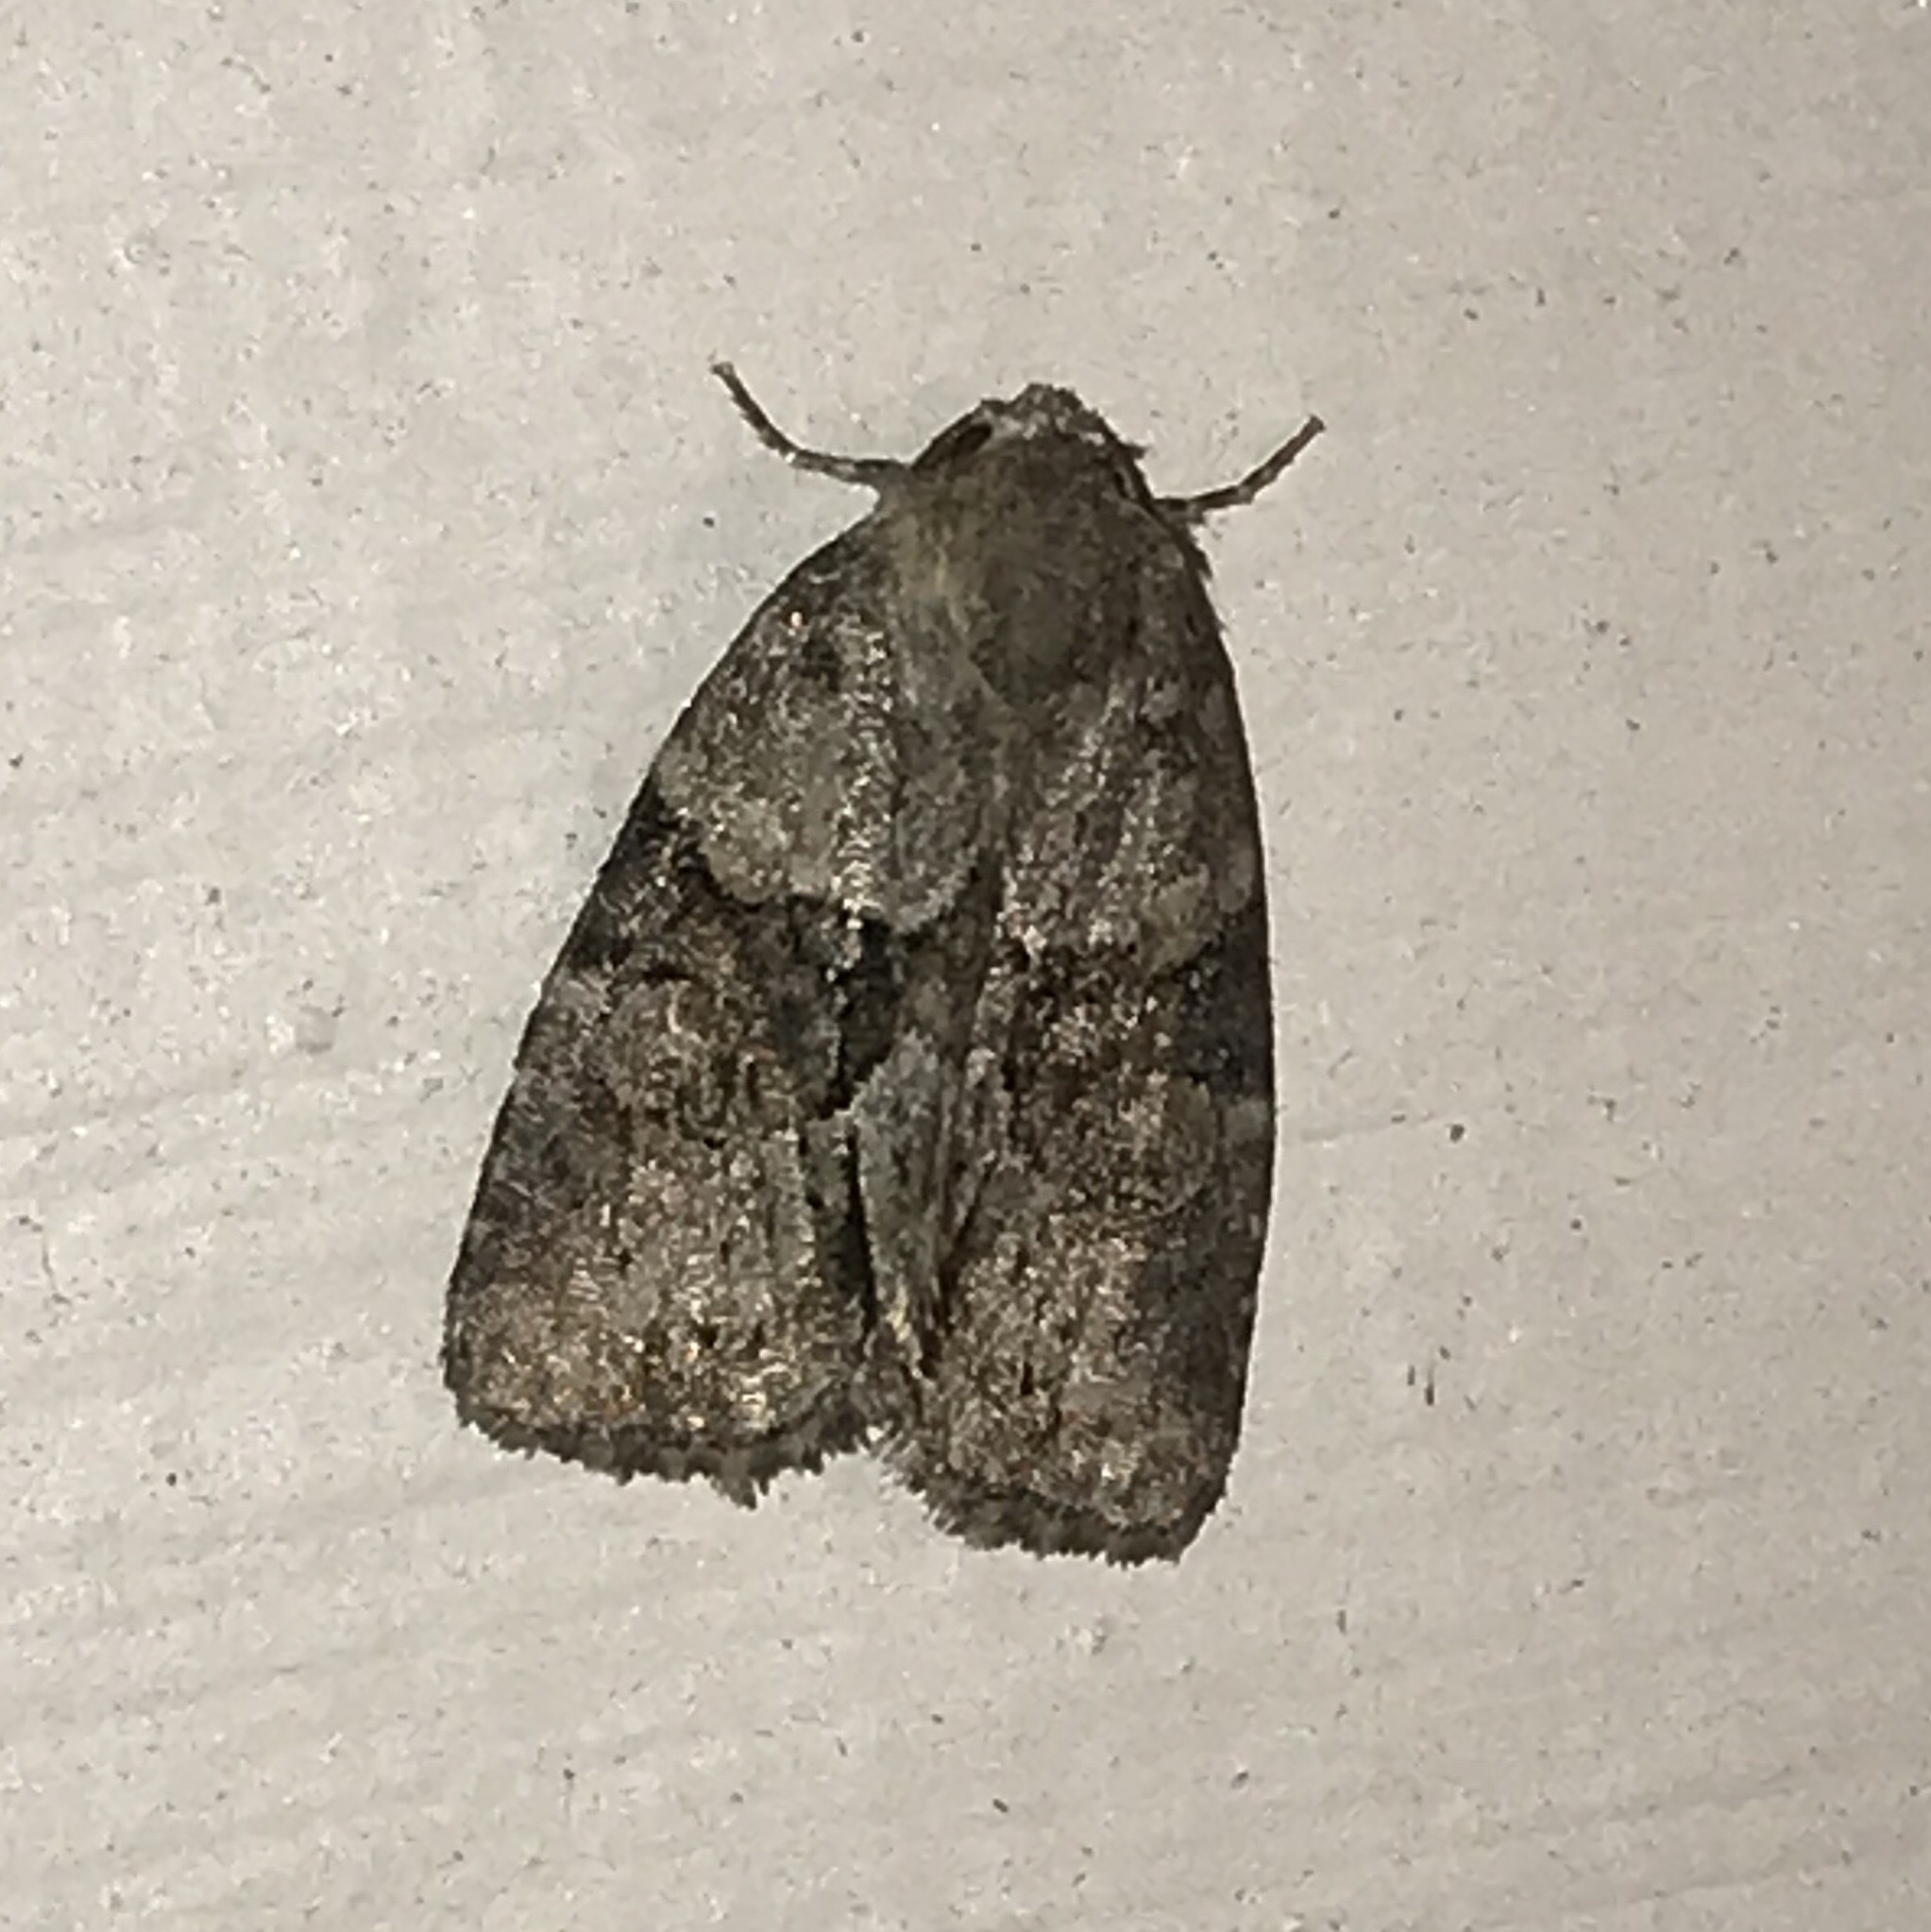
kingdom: Animalia
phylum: Arthropoda
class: Insecta
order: Lepidoptera
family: Noctuidae
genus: Neoligia
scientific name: Neoligia exhausta
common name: Exhausted brocade
